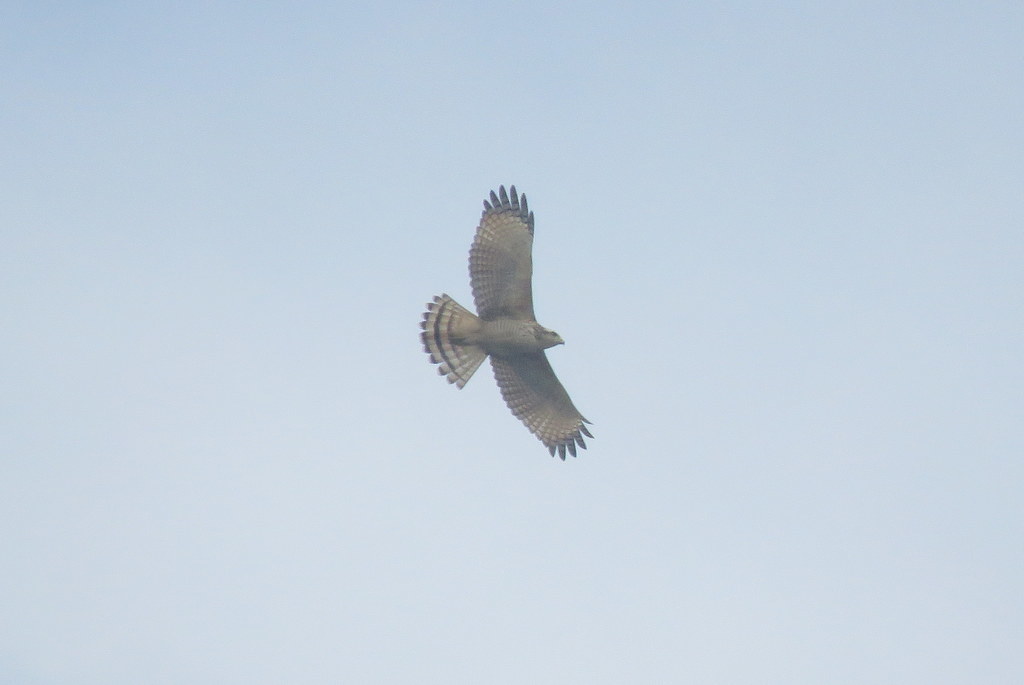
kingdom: Animalia
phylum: Chordata
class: Aves
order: Accipitriformes
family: Accipitridae
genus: Rupornis
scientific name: Rupornis magnirostris
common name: Roadside hawk
